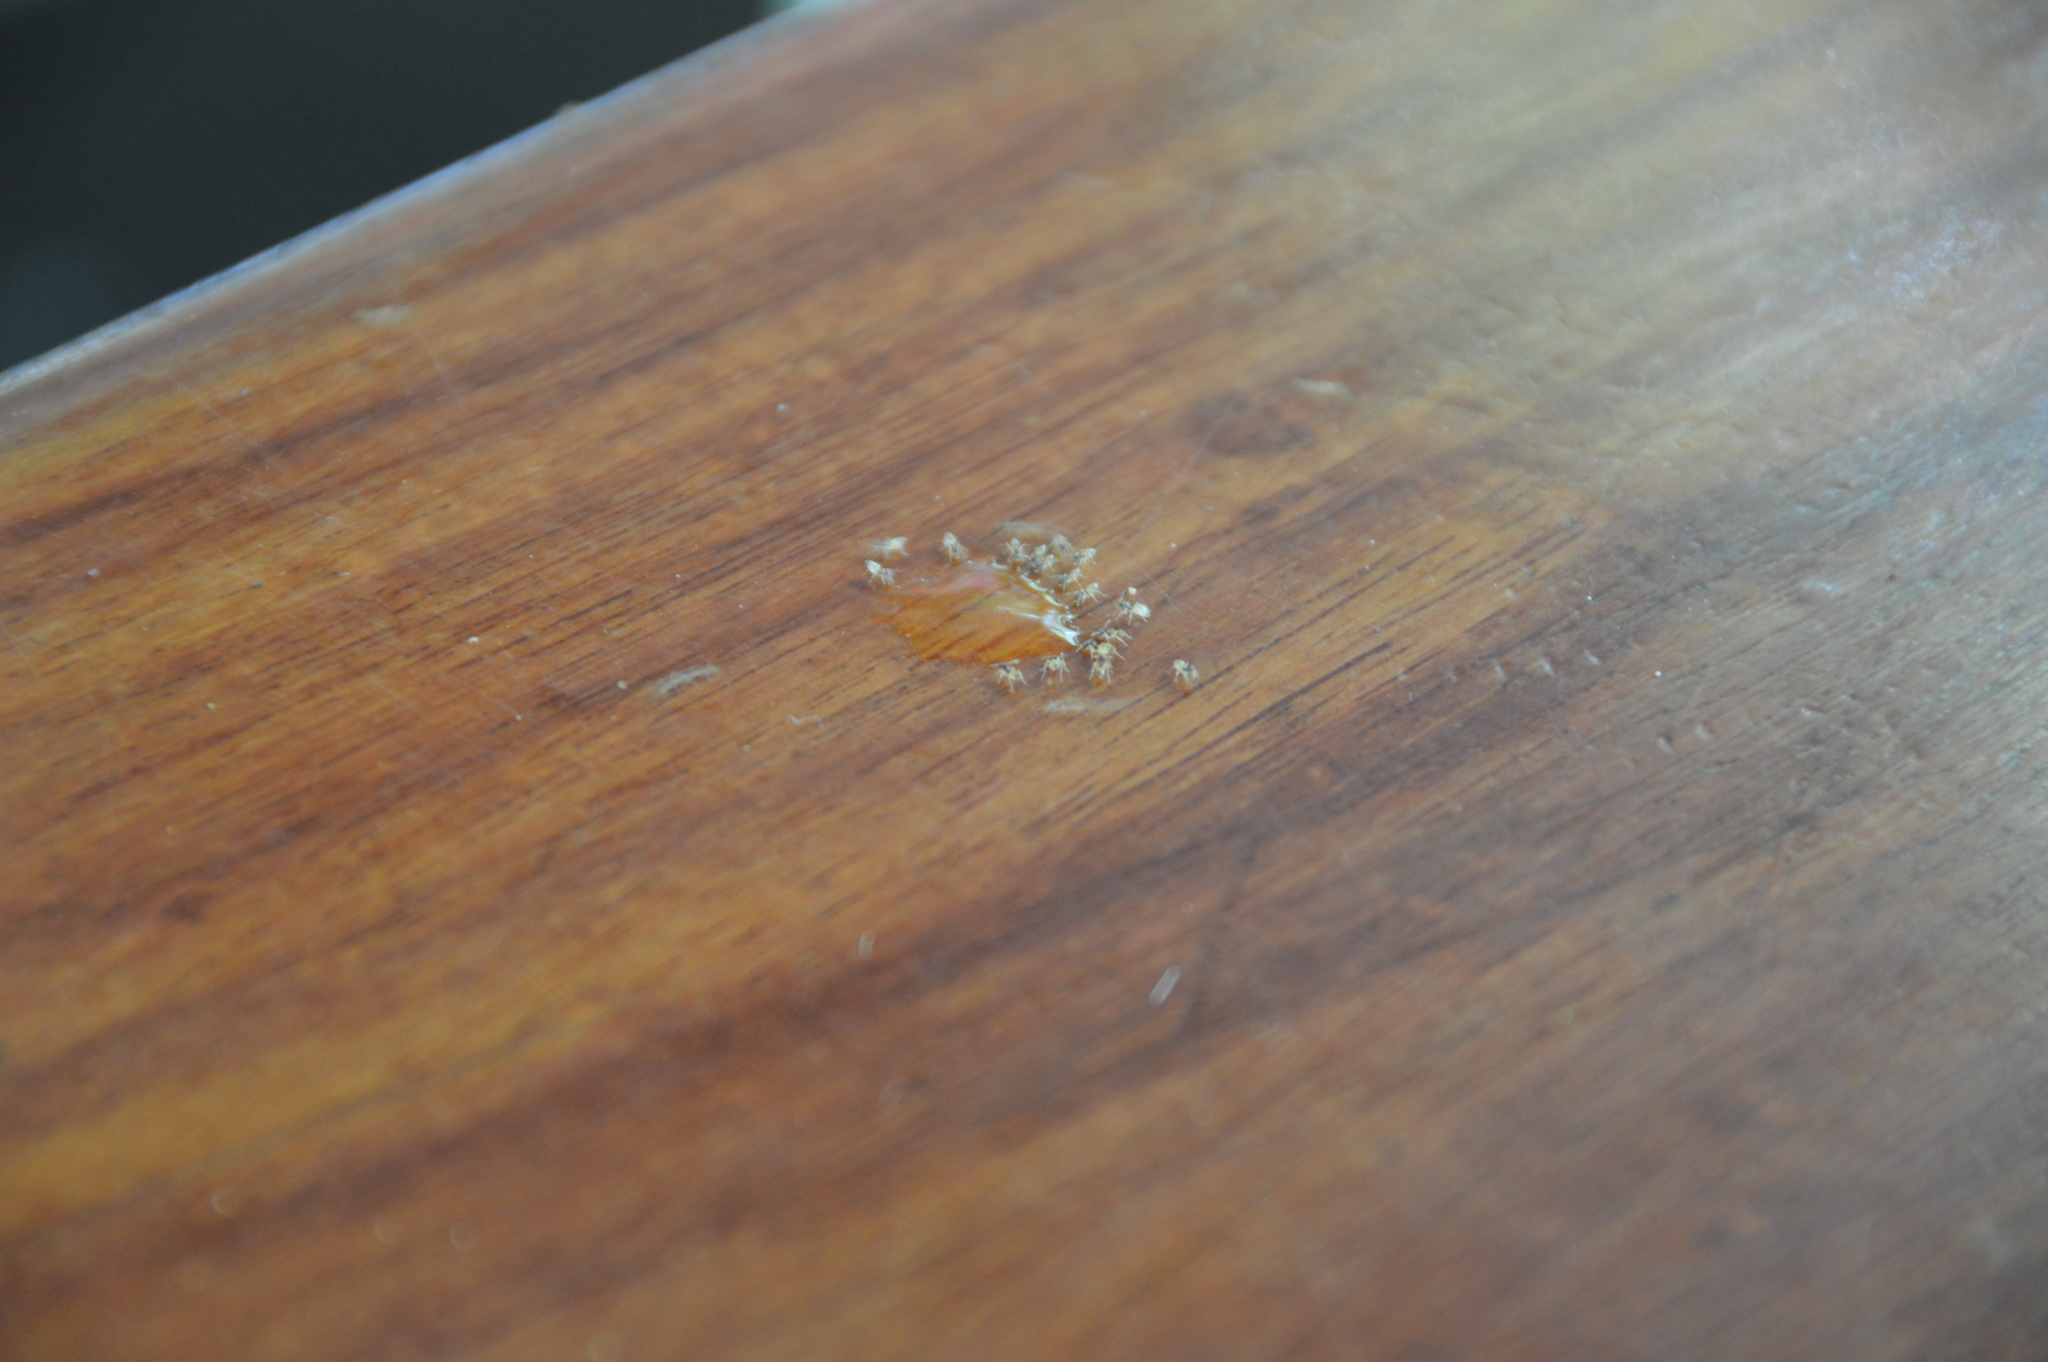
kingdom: Animalia
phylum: Arthropoda
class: Insecta
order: Hymenoptera
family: Formicidae
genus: Tapinoma
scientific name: Tapinoma melanocephalum
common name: Ghost ant
